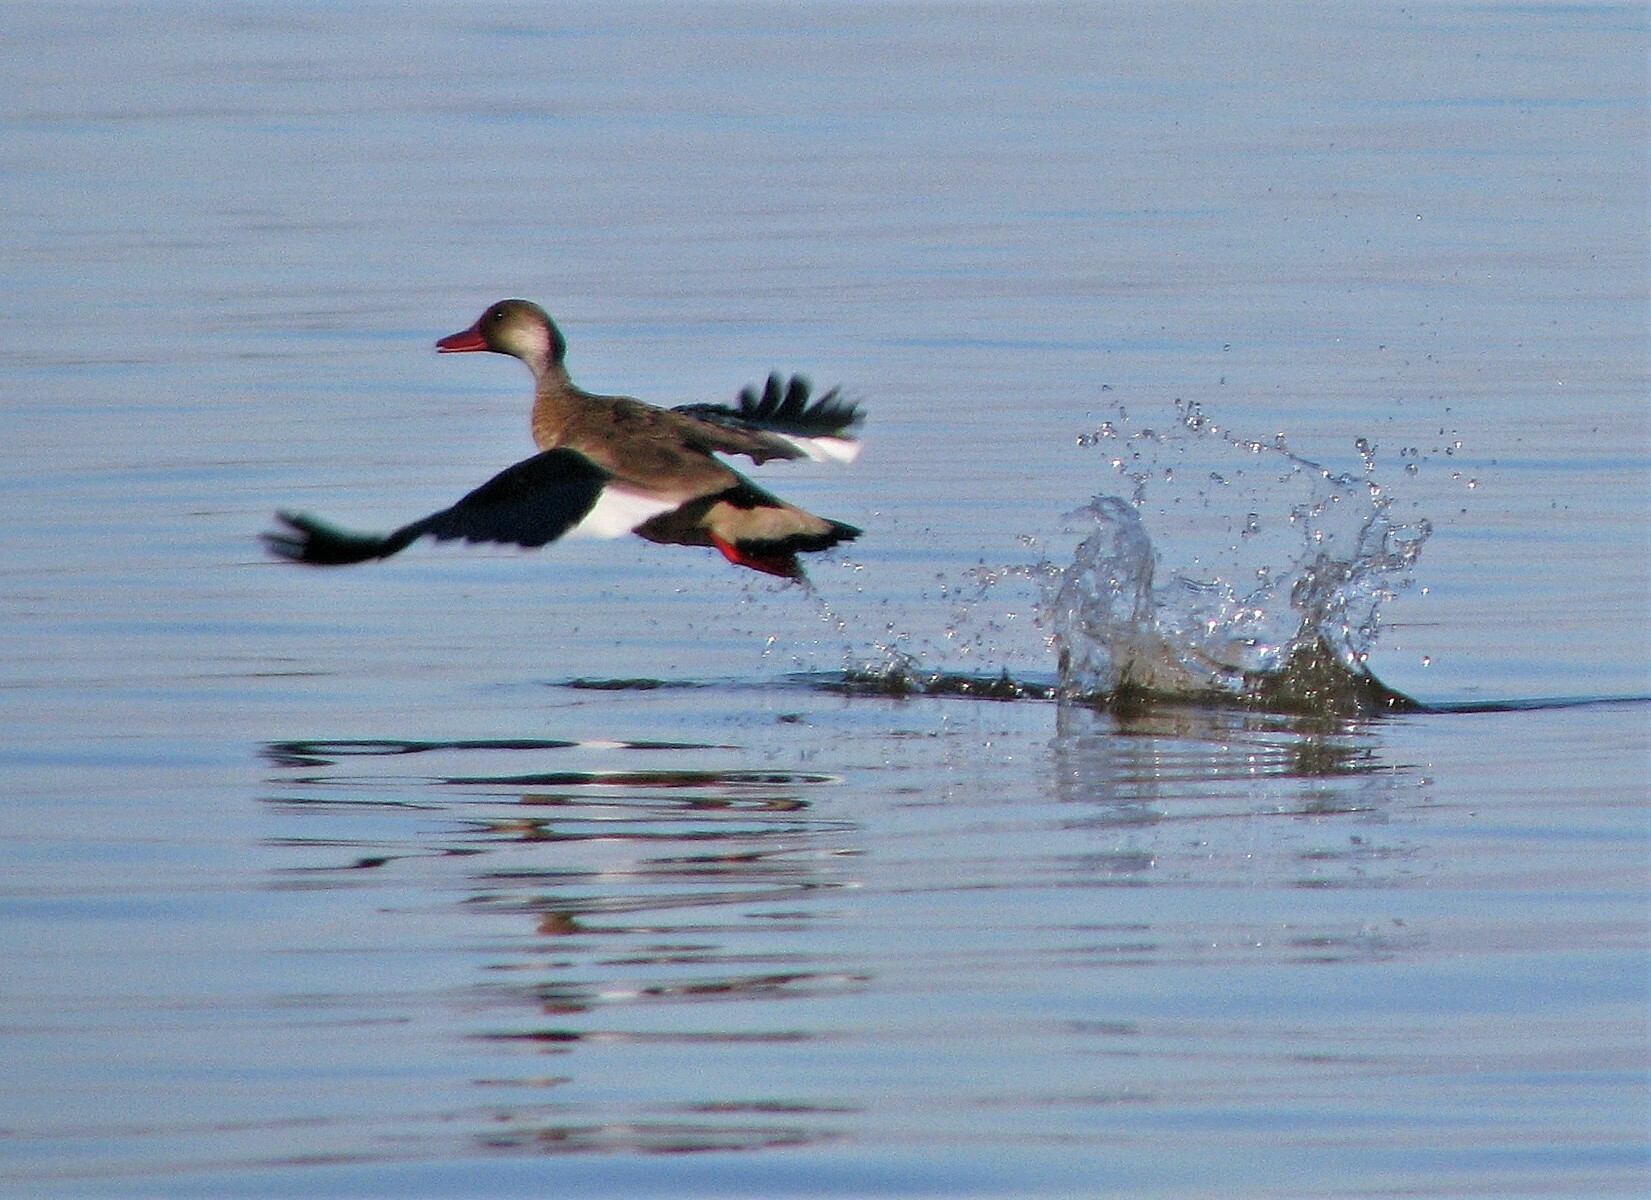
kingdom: Animalia
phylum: Chordata
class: Aves
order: Anseriformes
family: Anatidae
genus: Amazonetta
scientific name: Amazonetta brasiliensis
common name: Brazilian teal
